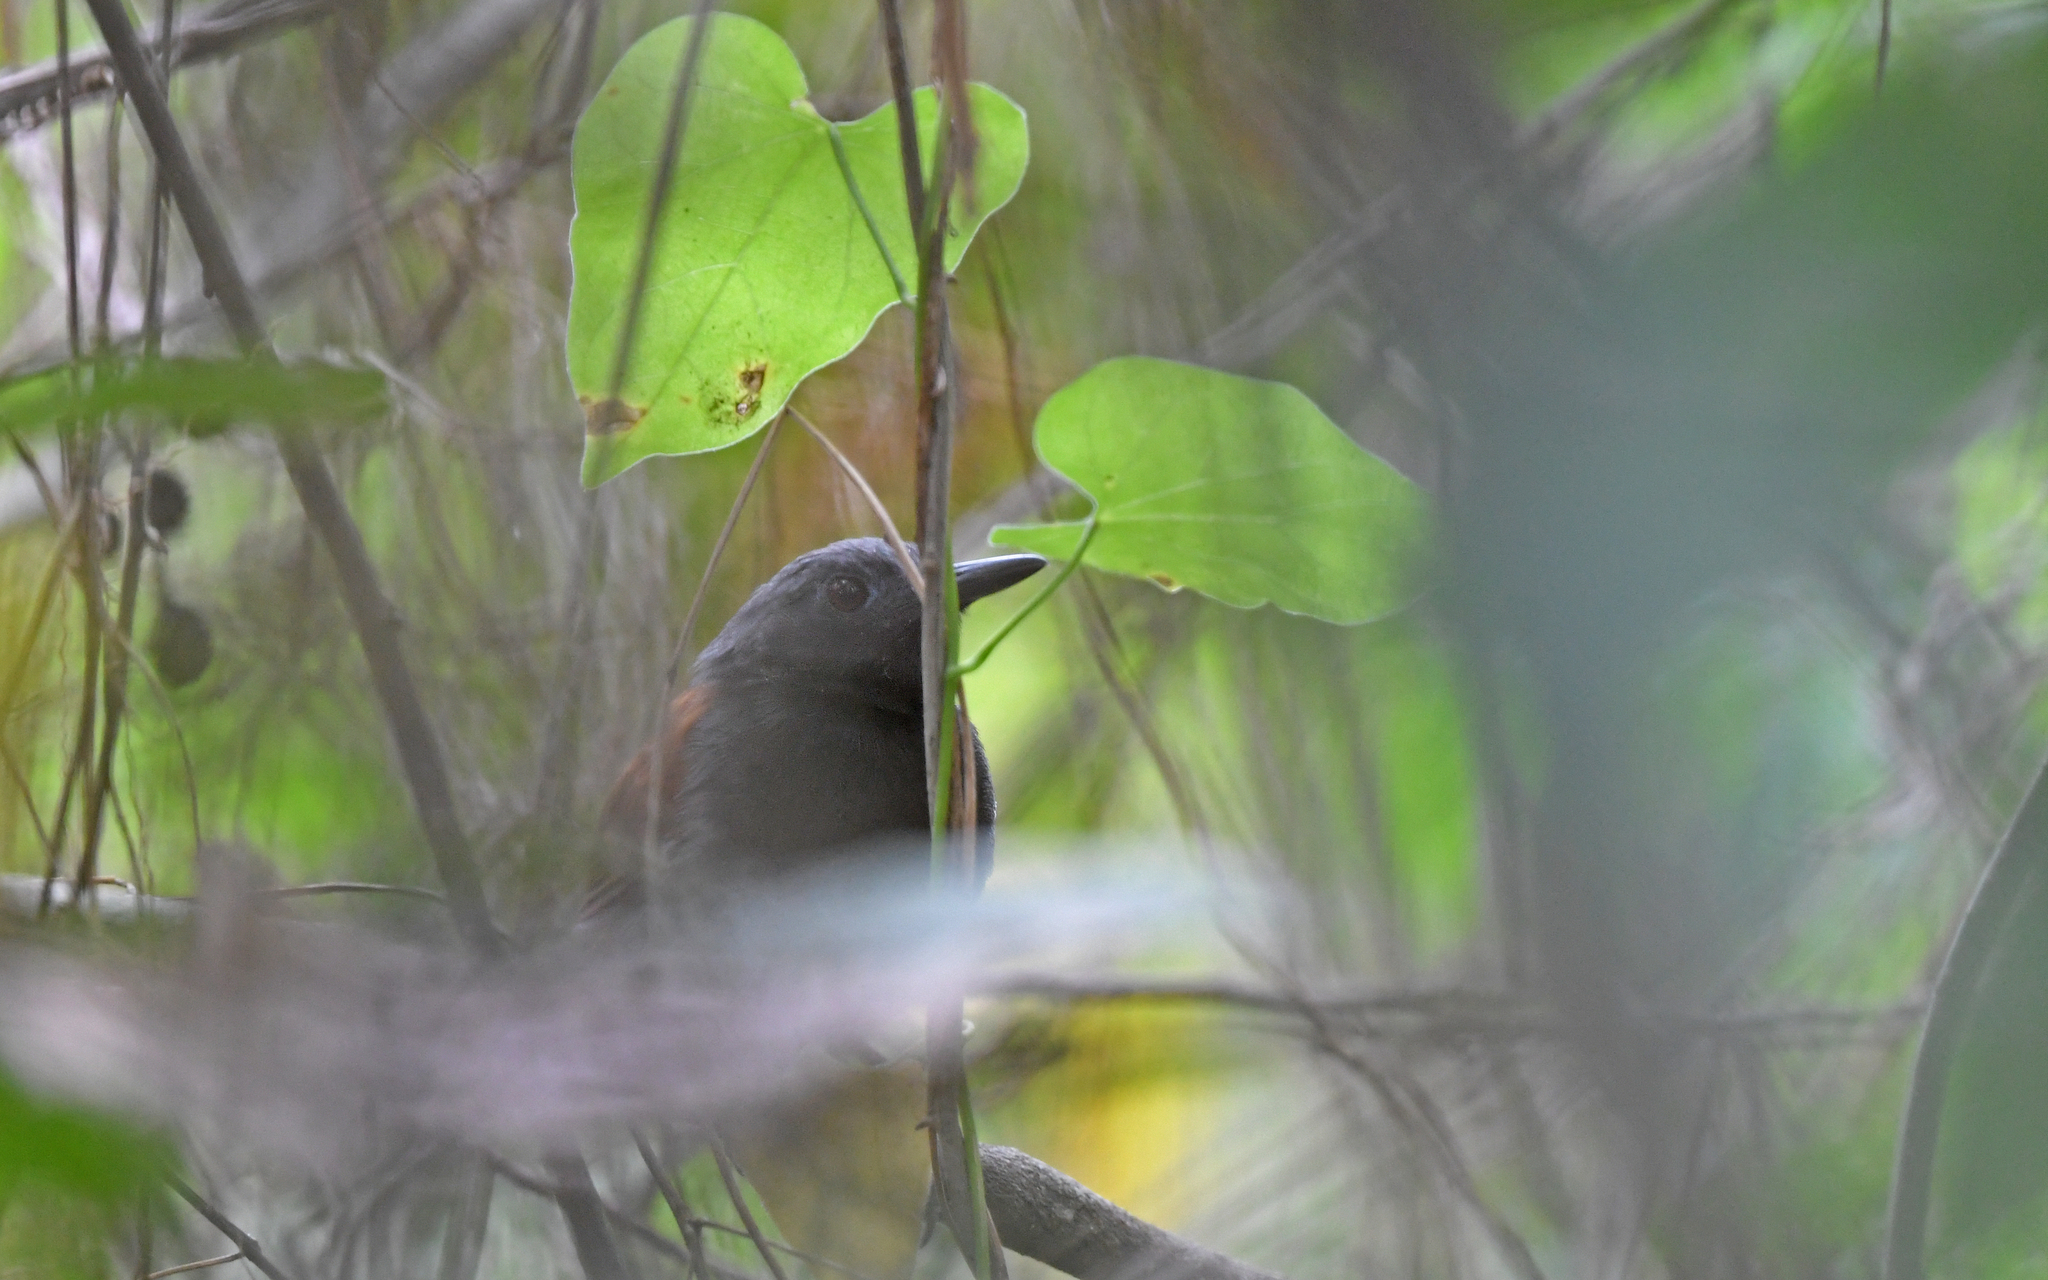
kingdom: Animalia
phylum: Chordata
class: Aves
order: Passeriformes
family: Thamnophilidae
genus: Myrmeciza
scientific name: Myrmeciza longipes
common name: White-bellied antbird
